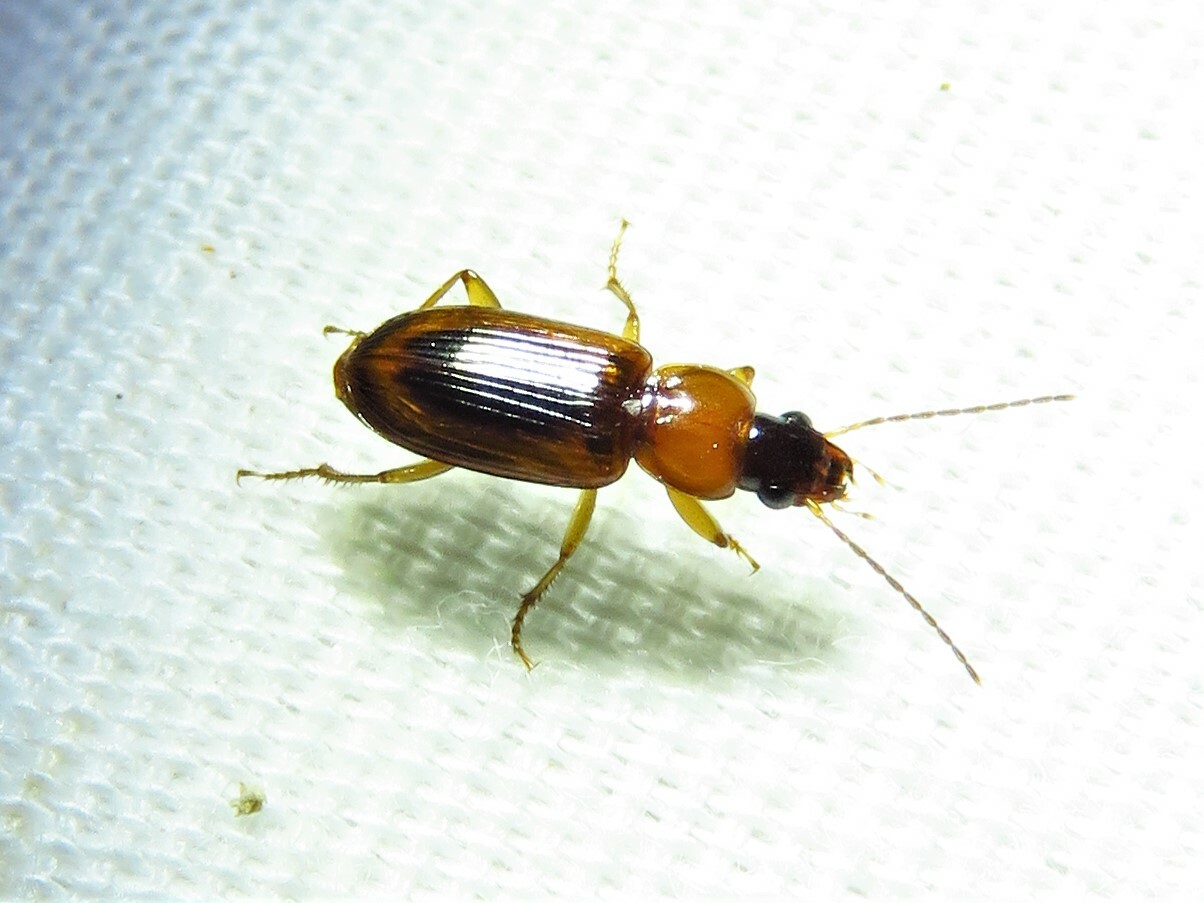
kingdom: Animalia
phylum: Arthropoda
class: Insecta
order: Coleoptera
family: Carabidae
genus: Stenolophus
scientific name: Stenolophus dissimilis
